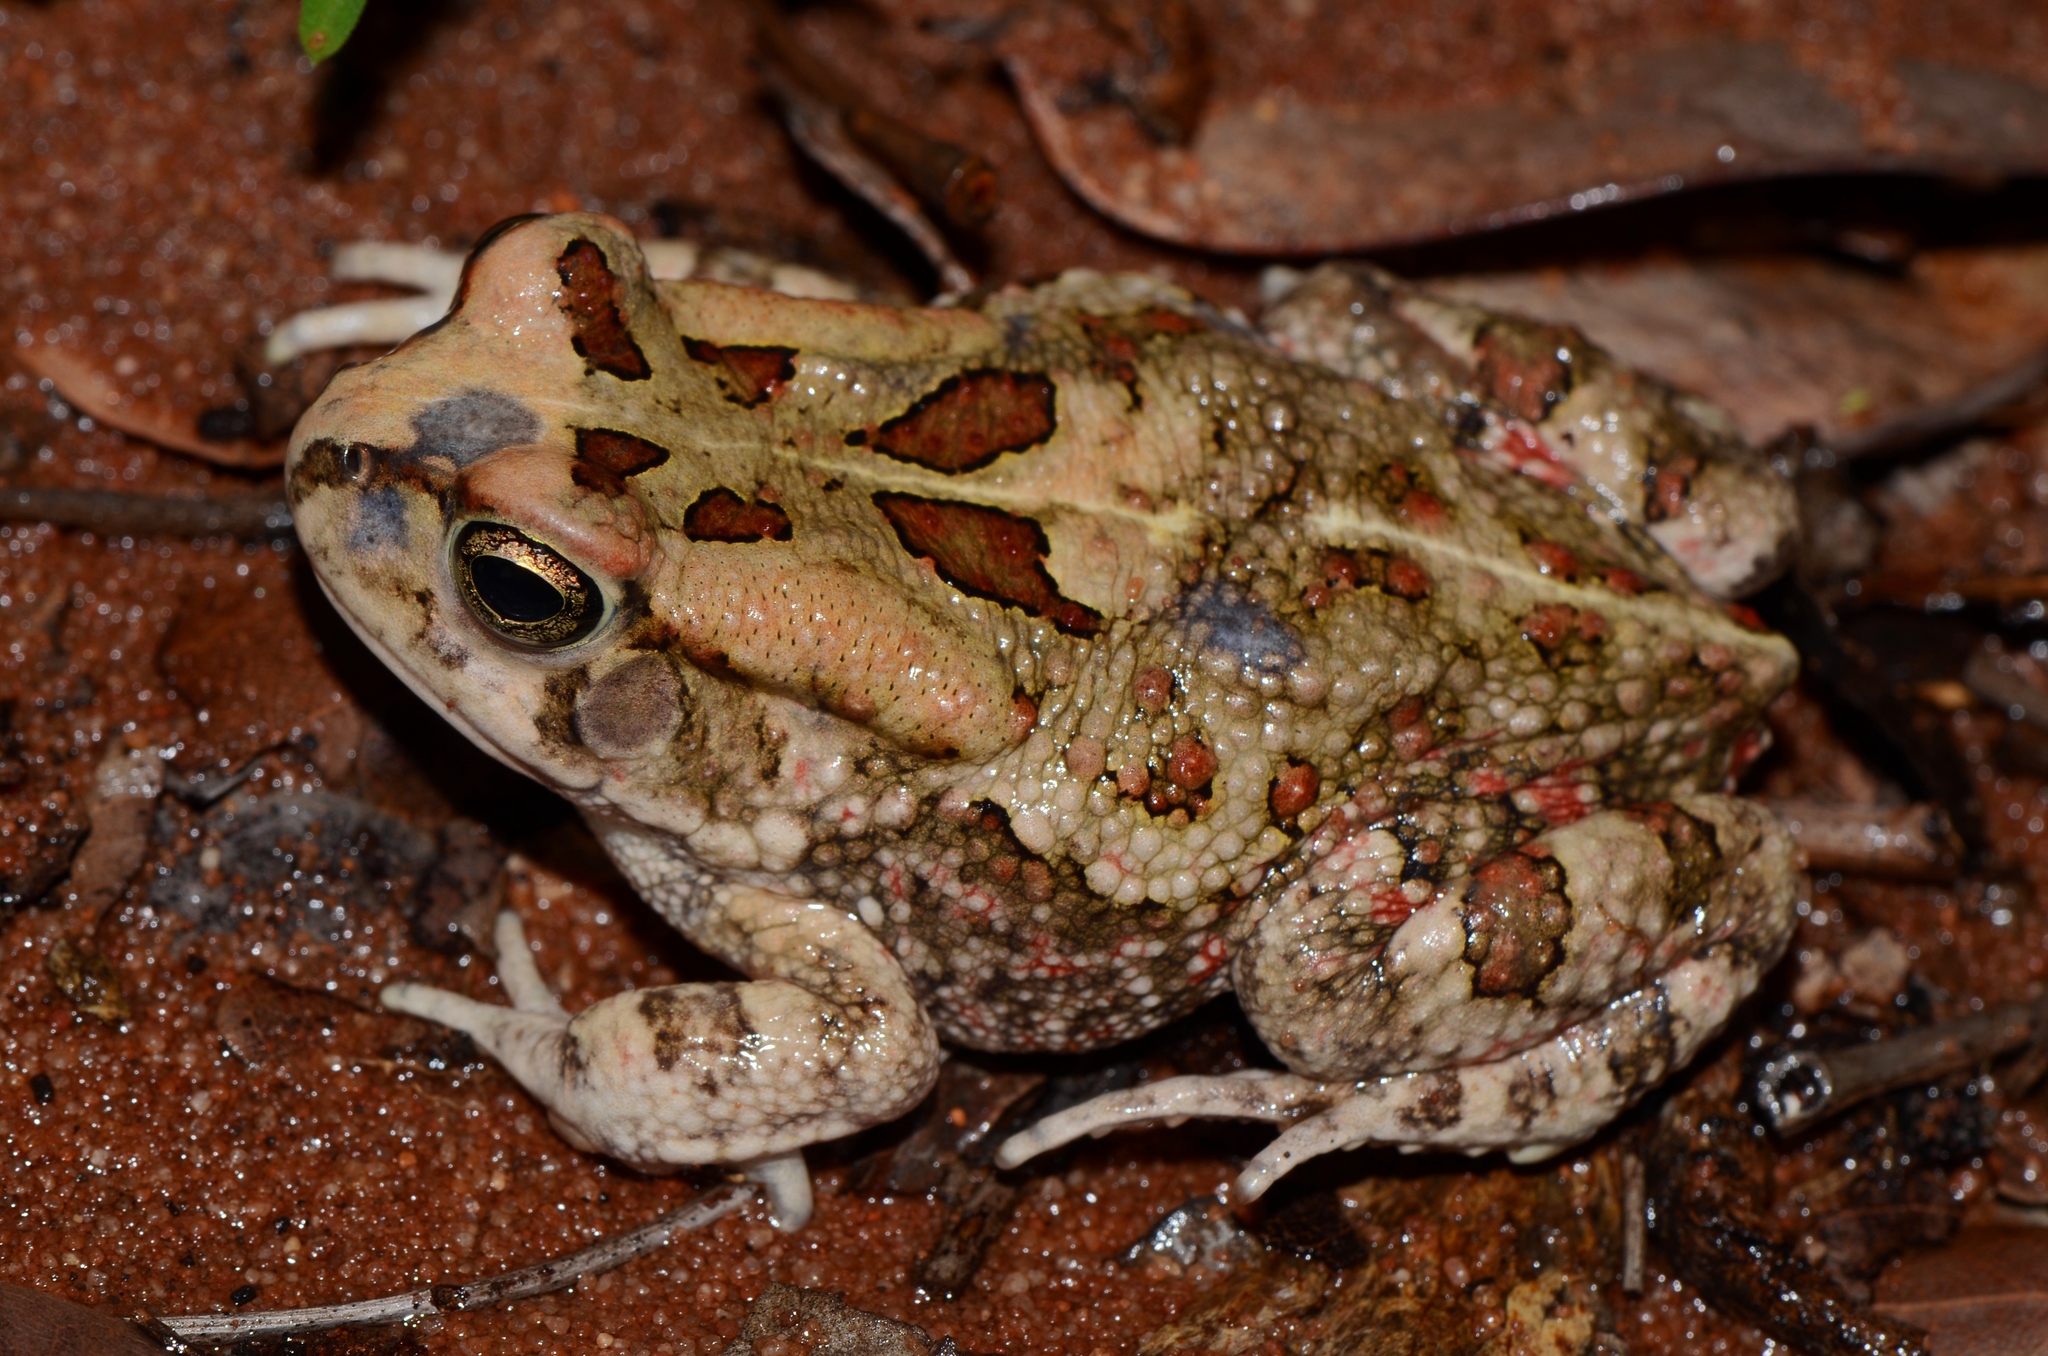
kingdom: Animalia
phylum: Chordata
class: Amphibia
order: Anura
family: Bufonidae
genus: Sclerophrys
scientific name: Sclerophrys garmani
